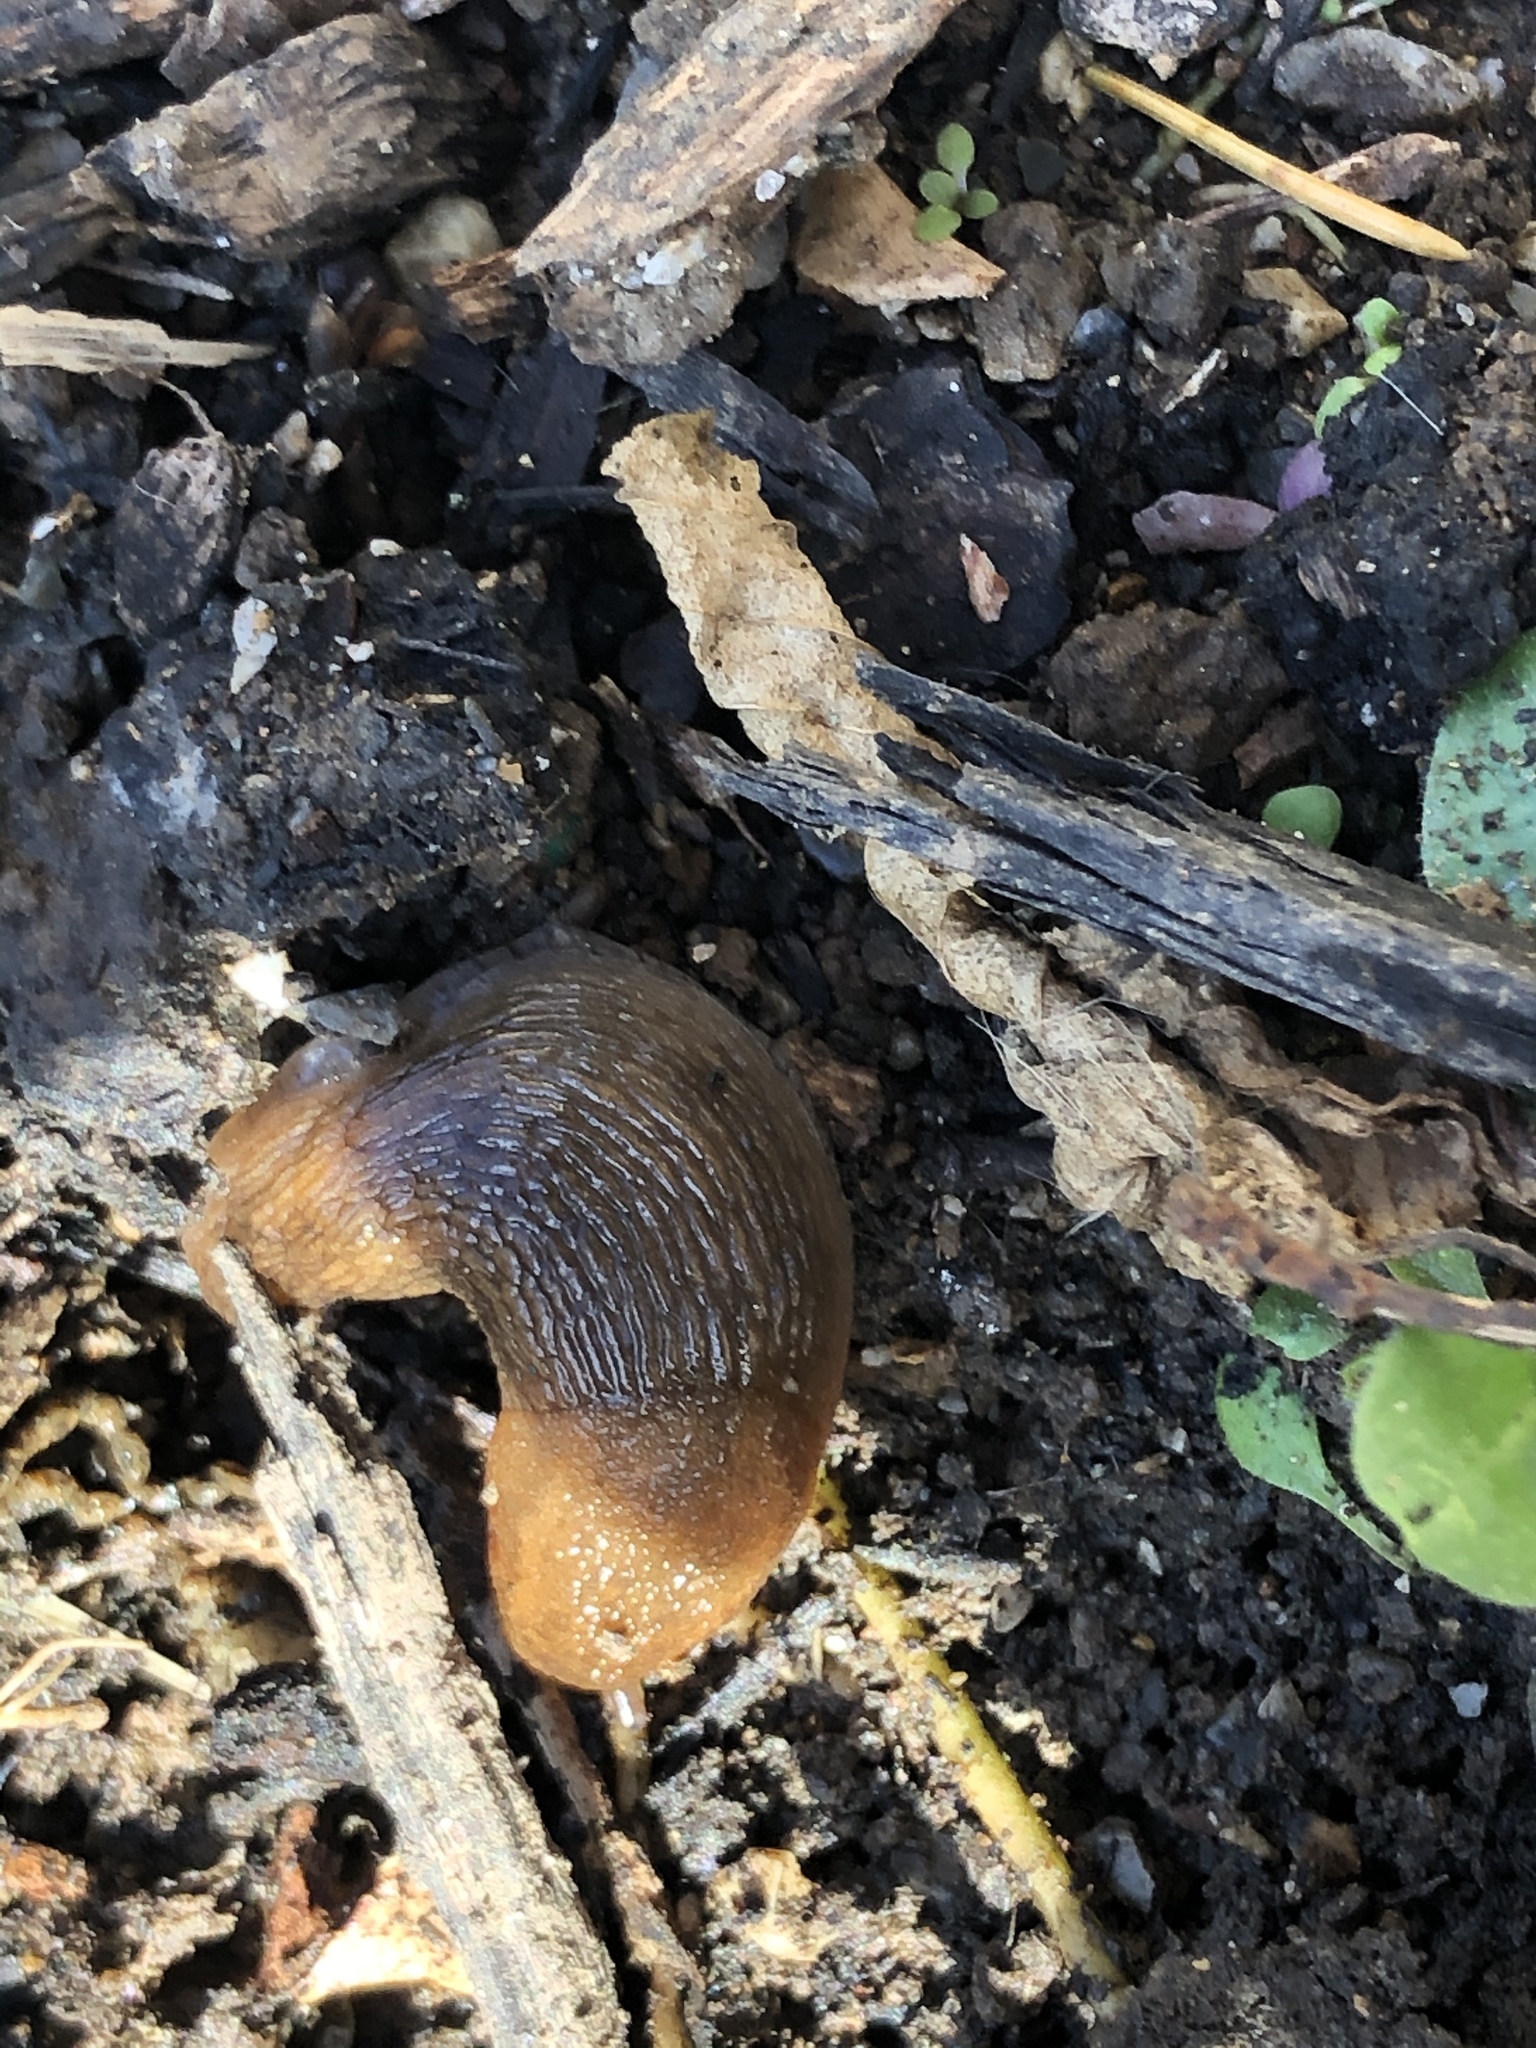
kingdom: Animalia
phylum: Mollusca
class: Gastropoda
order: Stylommatophora
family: Arionidae
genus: Mesarion
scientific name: Mesarion
